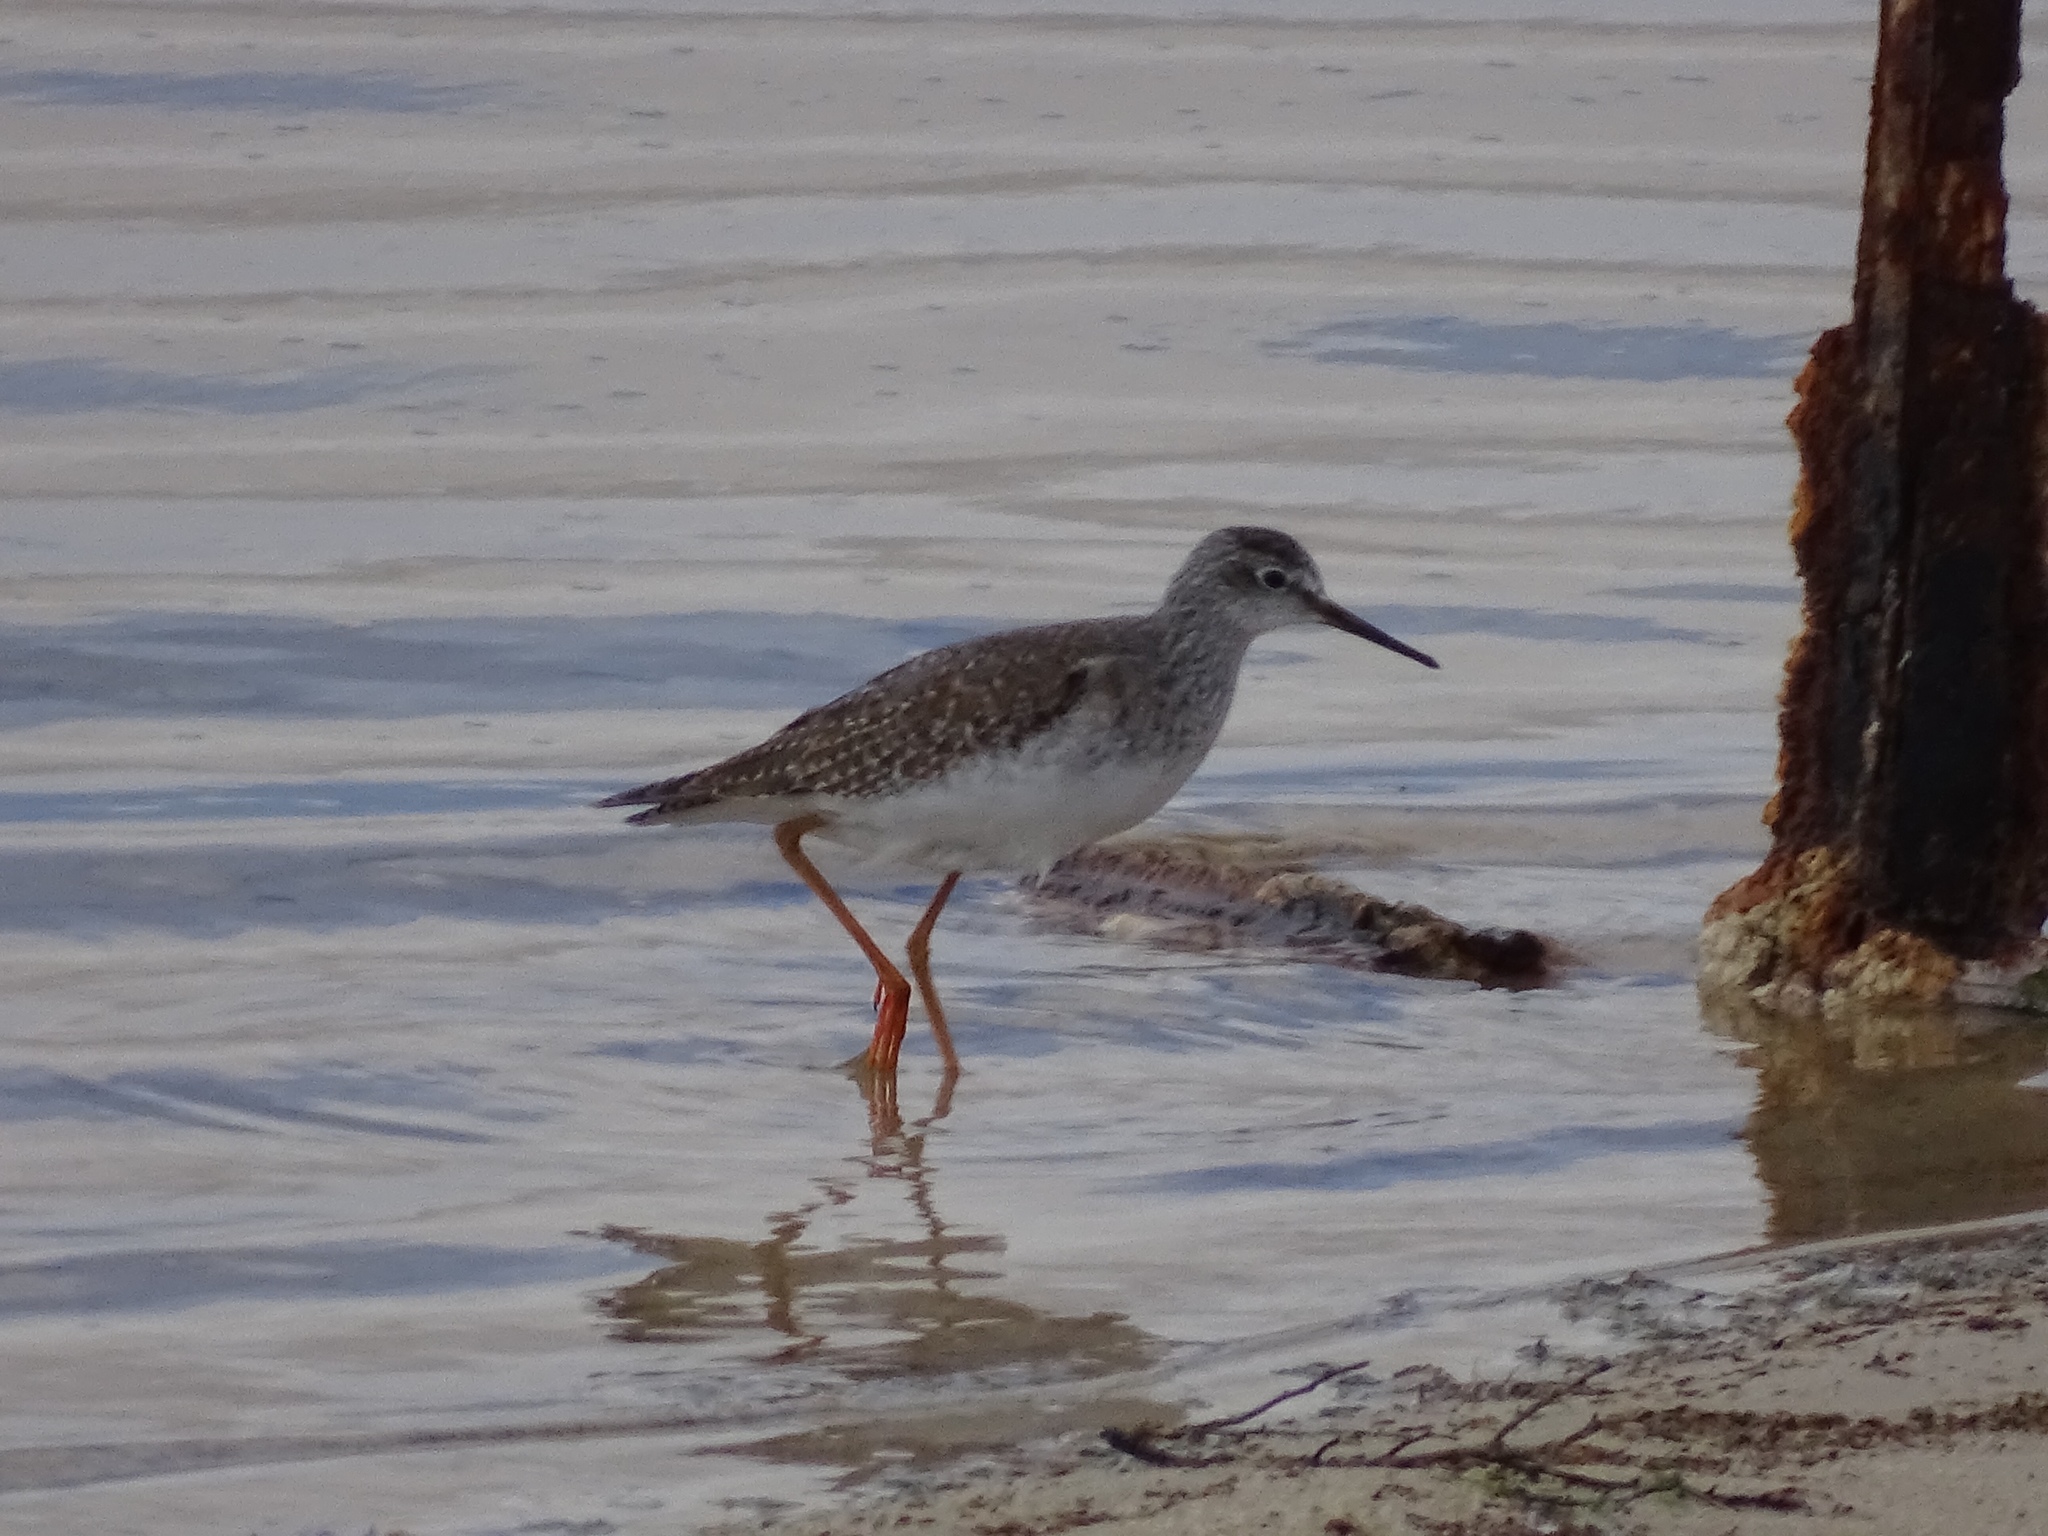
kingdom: Animalia
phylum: Chordata
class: Aves
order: Charadriiformes
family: Scolopacidae
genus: Tringa
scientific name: Tringa flavipes
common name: Lesser yellowlegs
